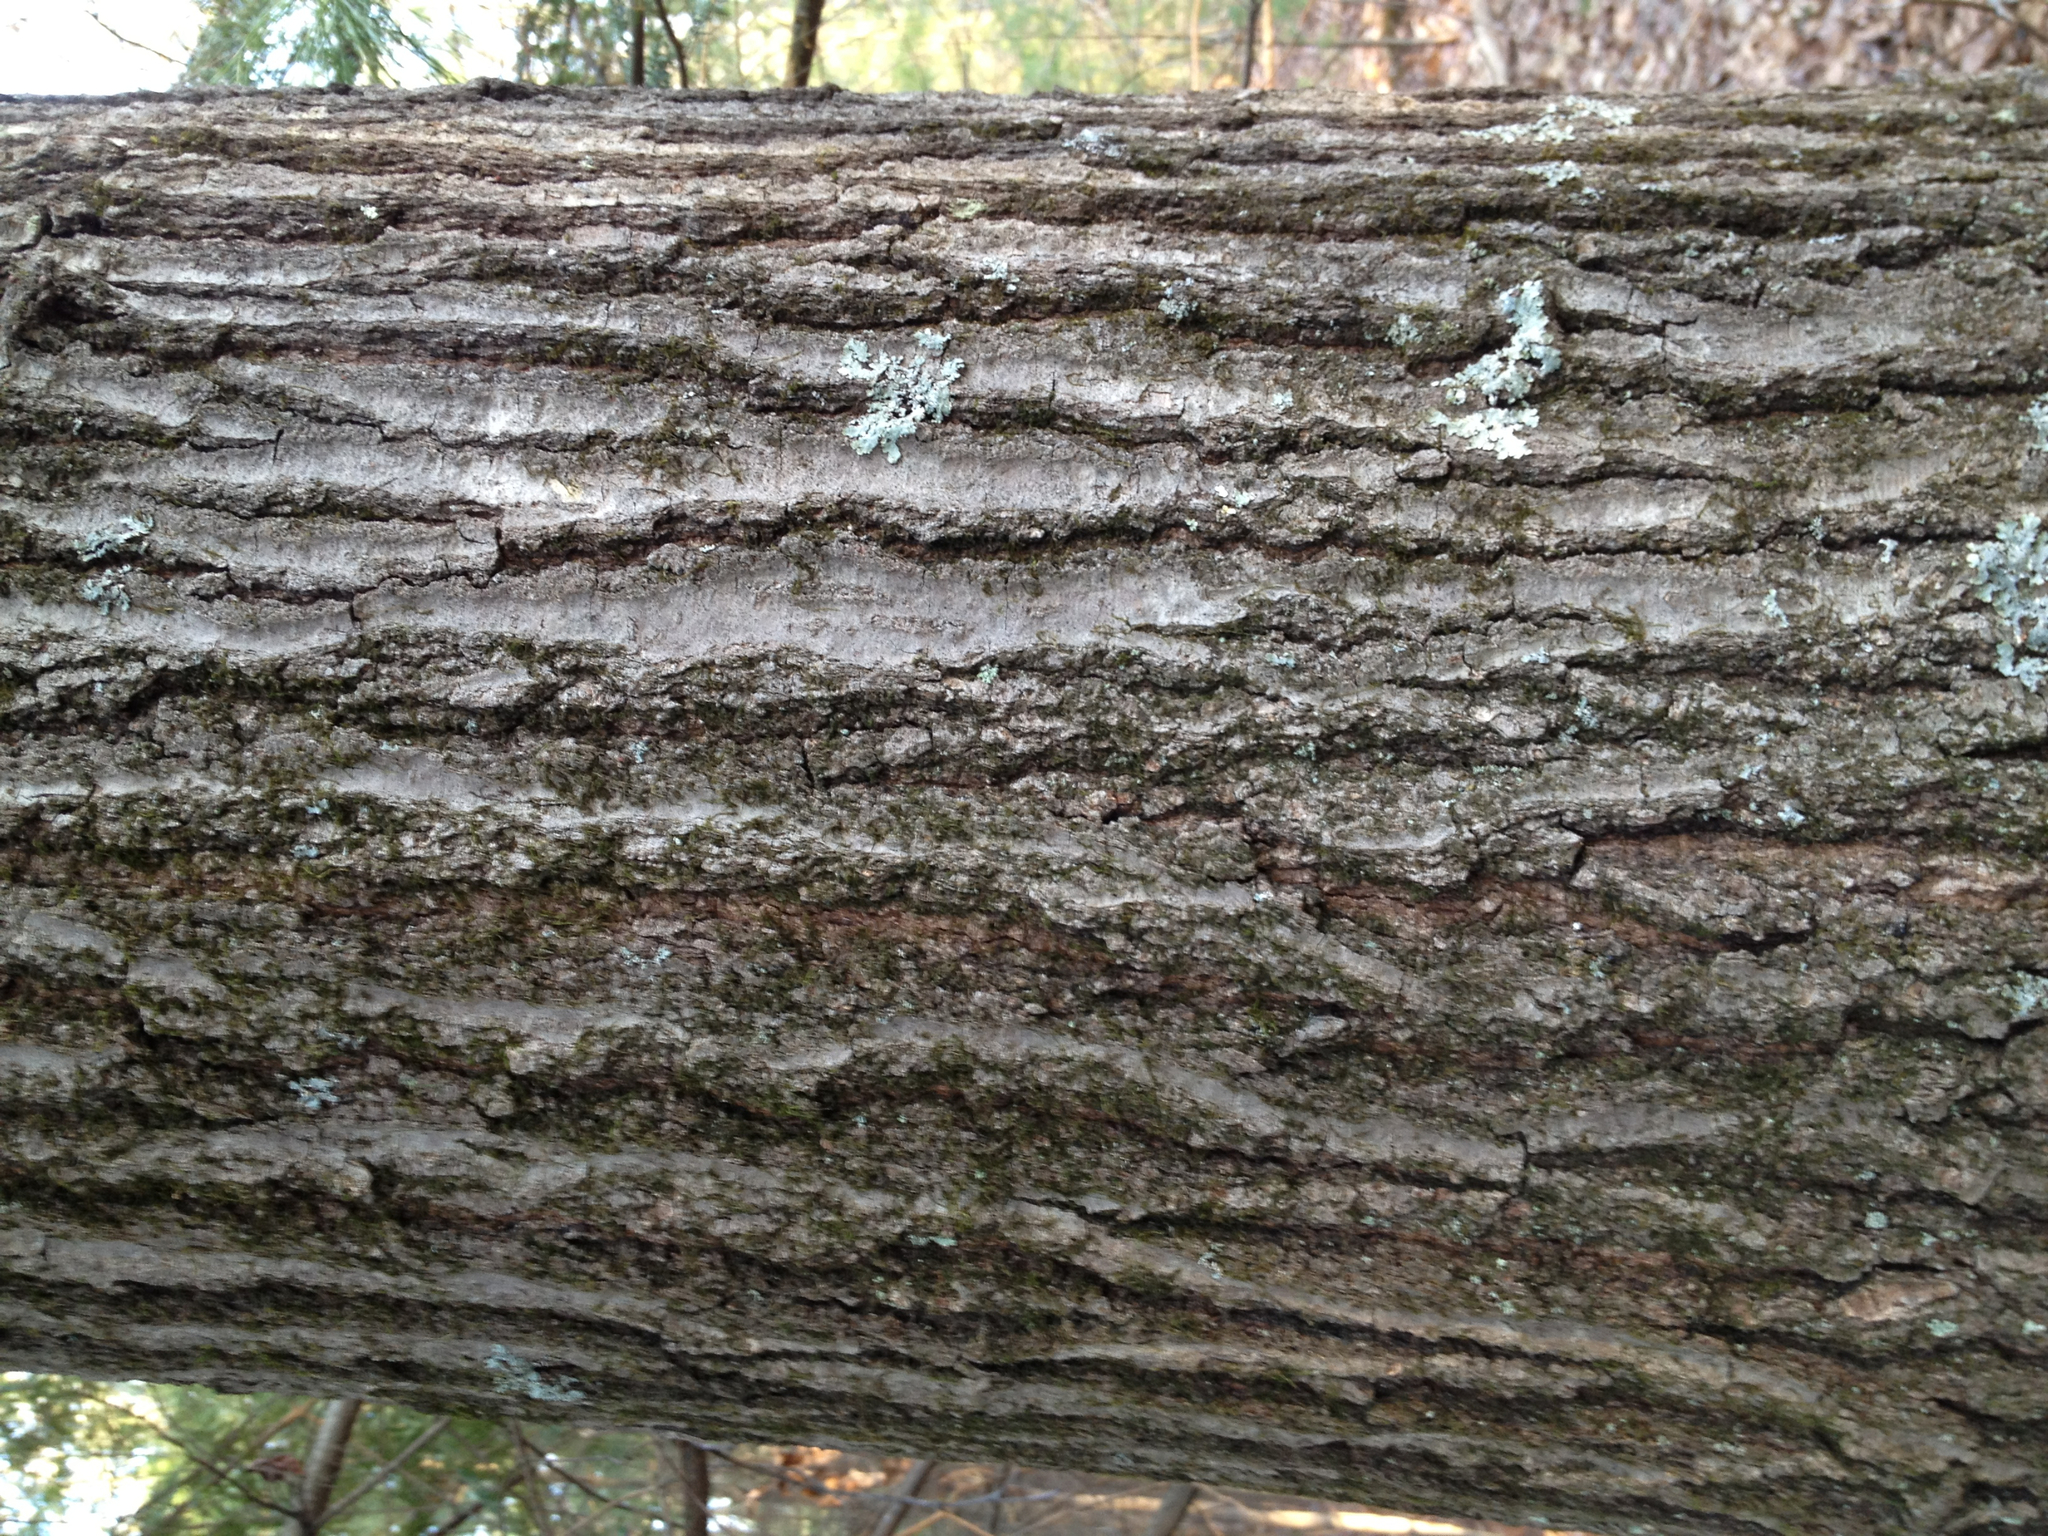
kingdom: Plantae
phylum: Tracheophyta
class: Magnoliopsida
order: Fagales
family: Fagaceae
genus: Quercus
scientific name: Quercus rubra
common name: Red oak
